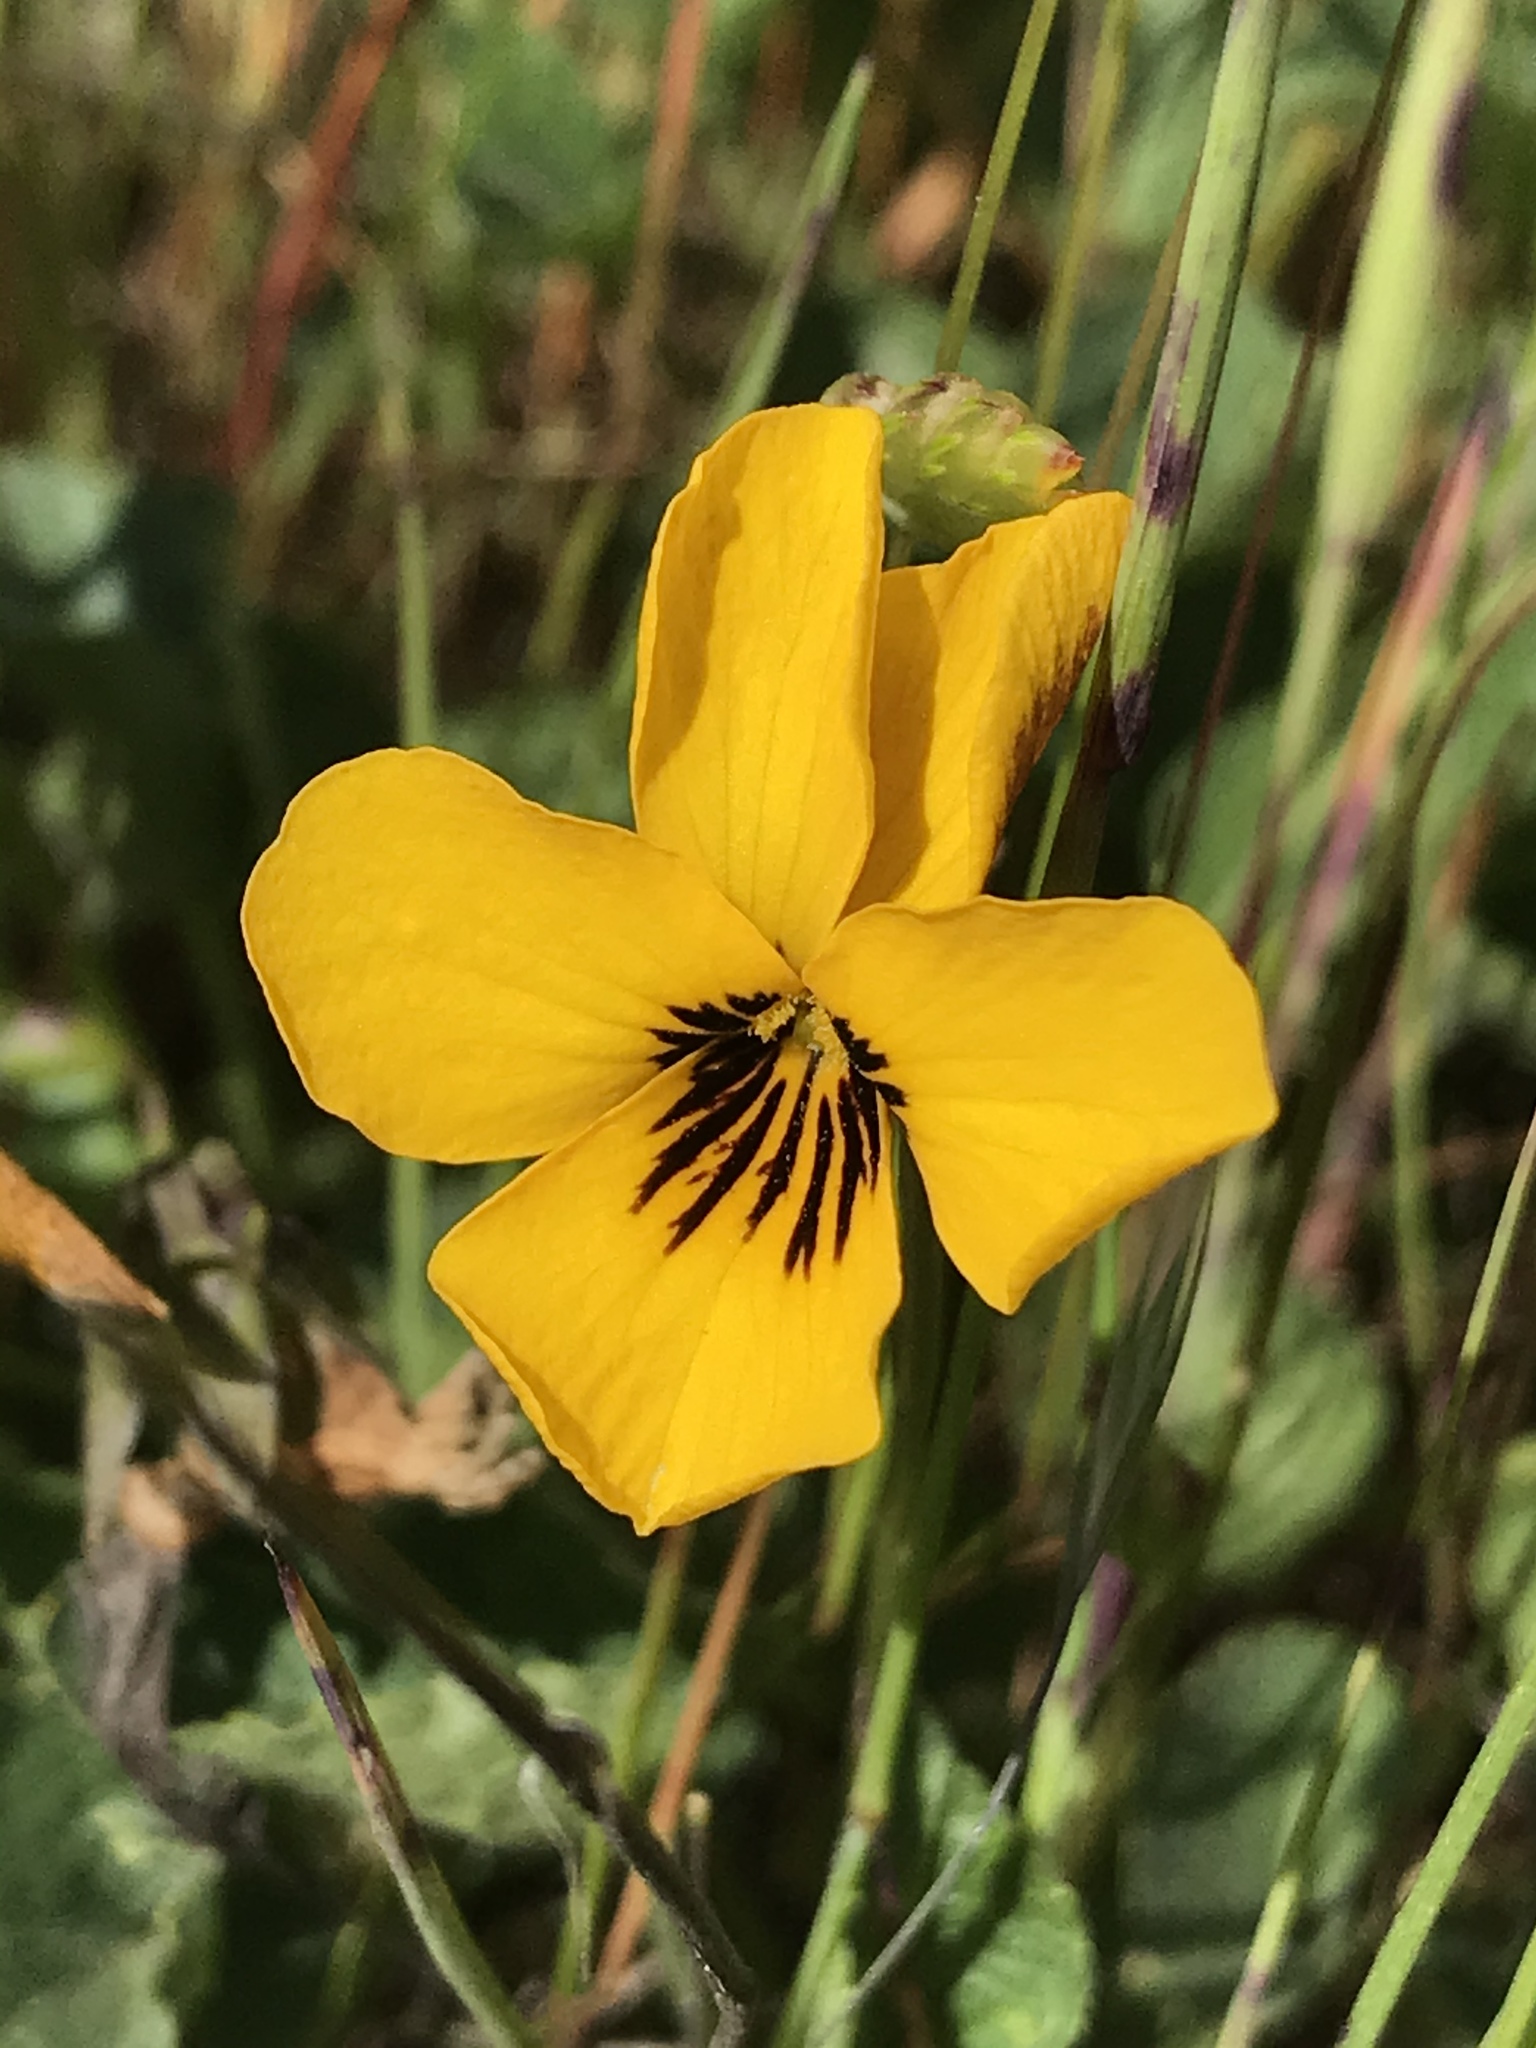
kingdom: Plantae
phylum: Tracheophyta
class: Magnoliopsida
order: Malpighiales
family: Violaceae
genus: Viola
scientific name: Viola pedunculata
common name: California golden violet
